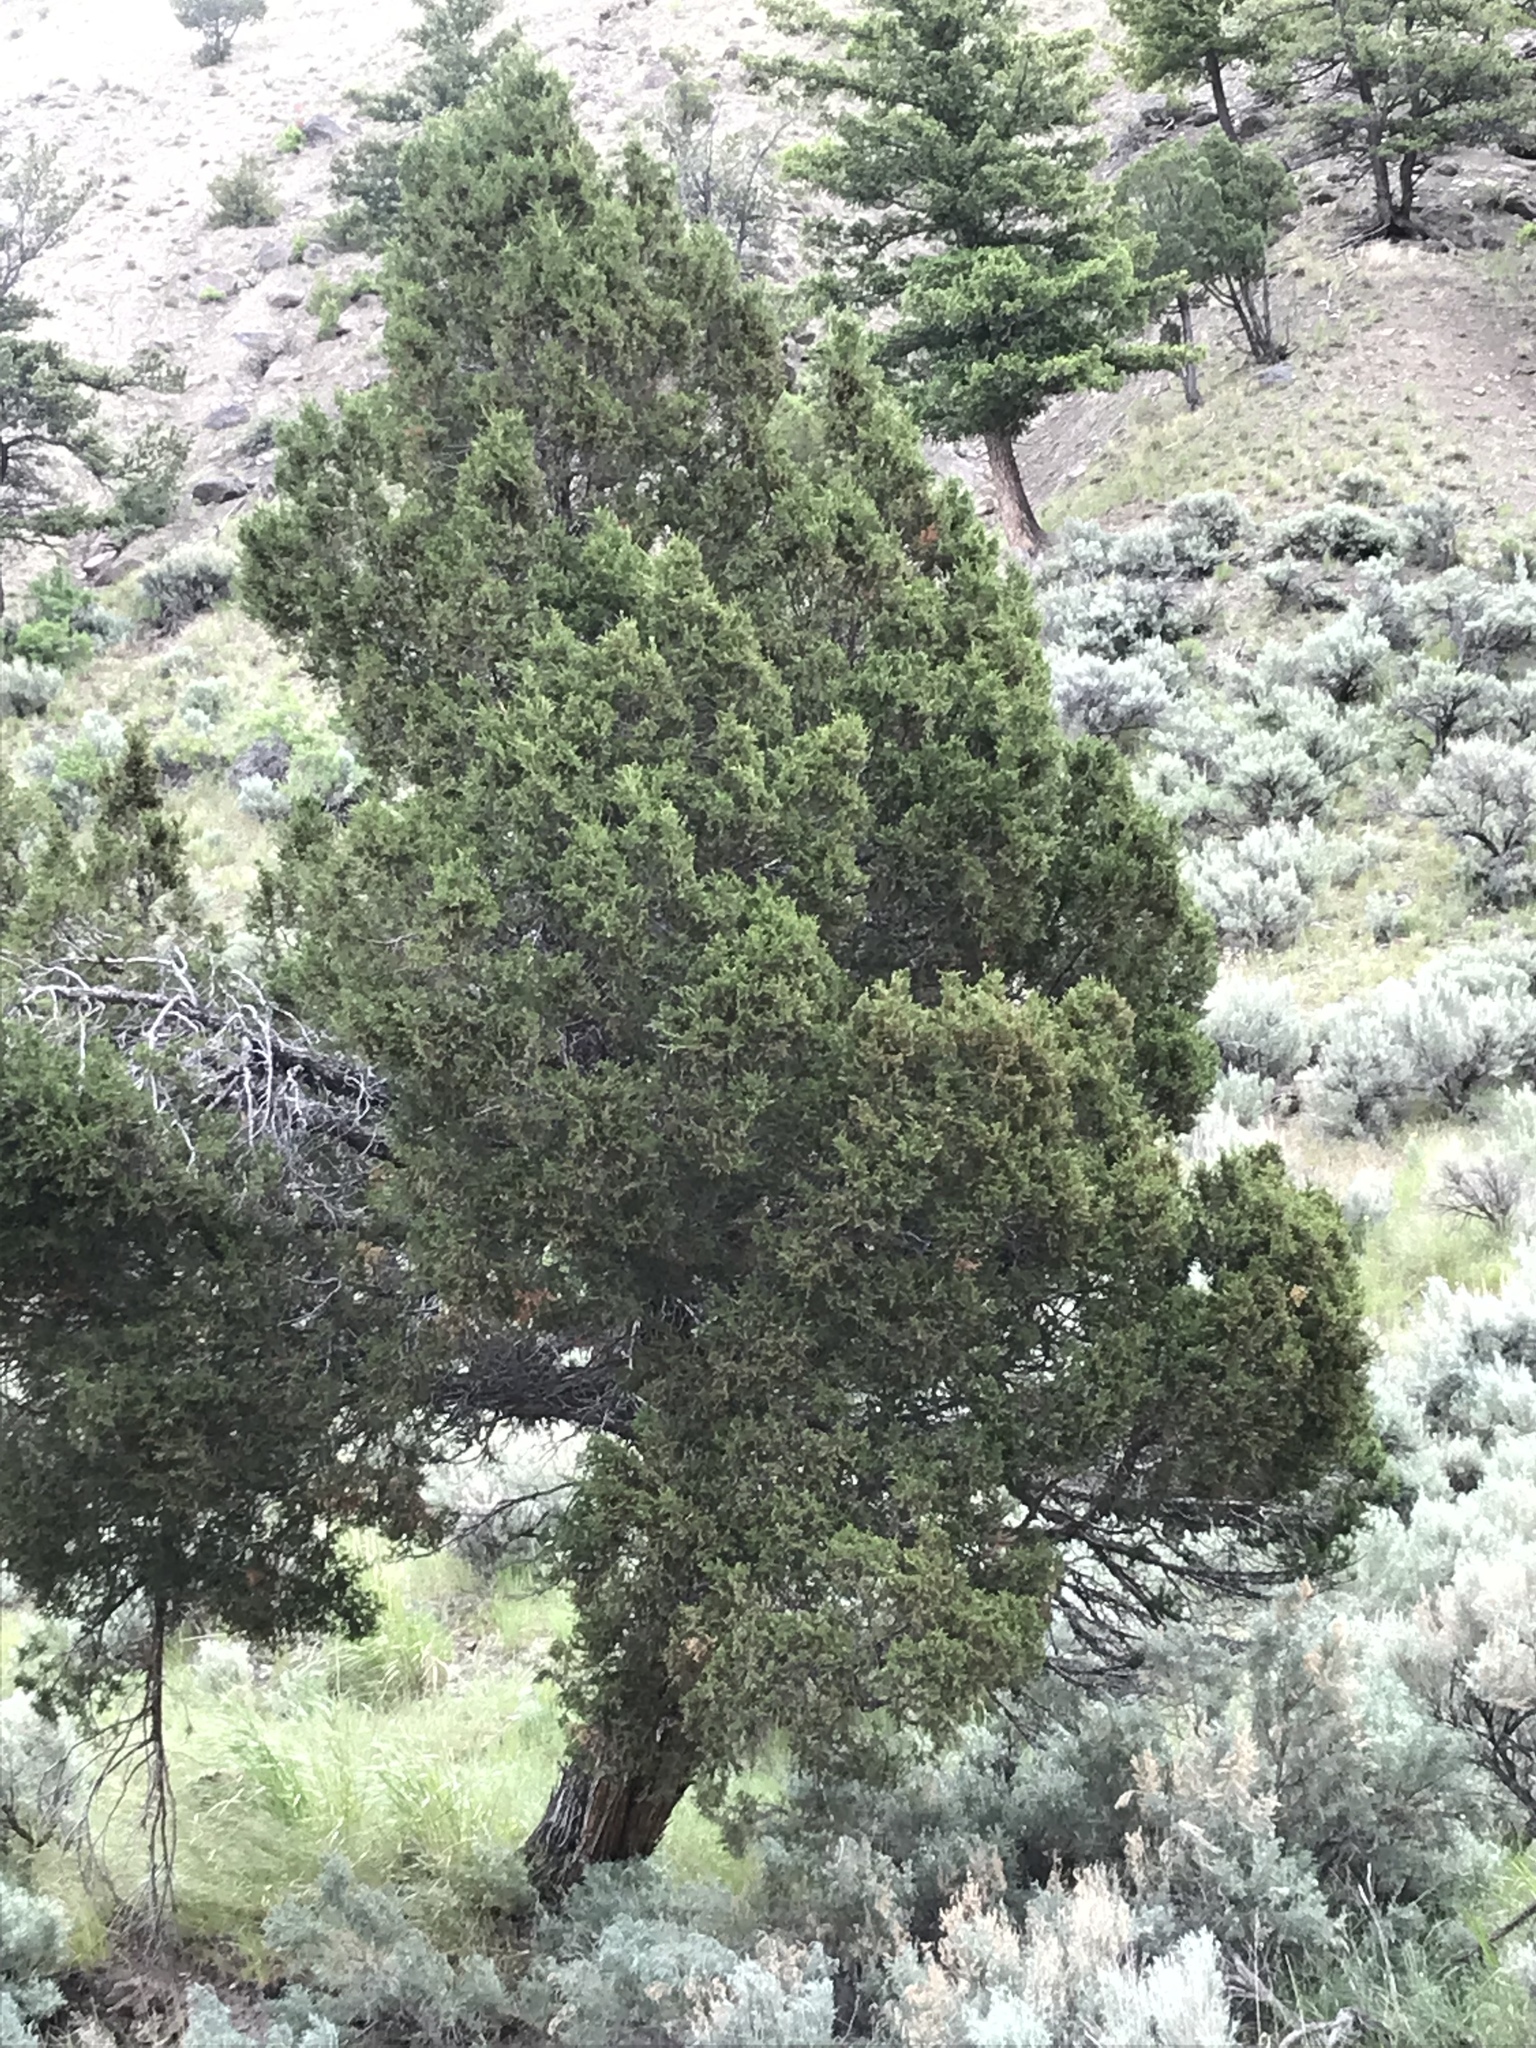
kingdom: Plantae
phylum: Tracheophyta
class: Pinopsida
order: Pinales
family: Cupressaceae
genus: Juniperus
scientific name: Juniperus scopulorum
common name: Rocky mountain juniper
